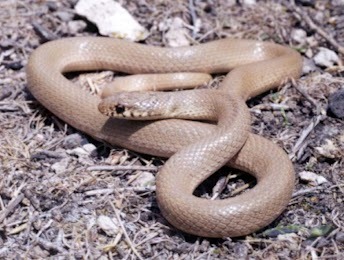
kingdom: Animalia
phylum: Chordata
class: Squamata
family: Colubridae
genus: Eirenis
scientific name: Eirenis modestus
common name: Ring-headed dwarf snake
